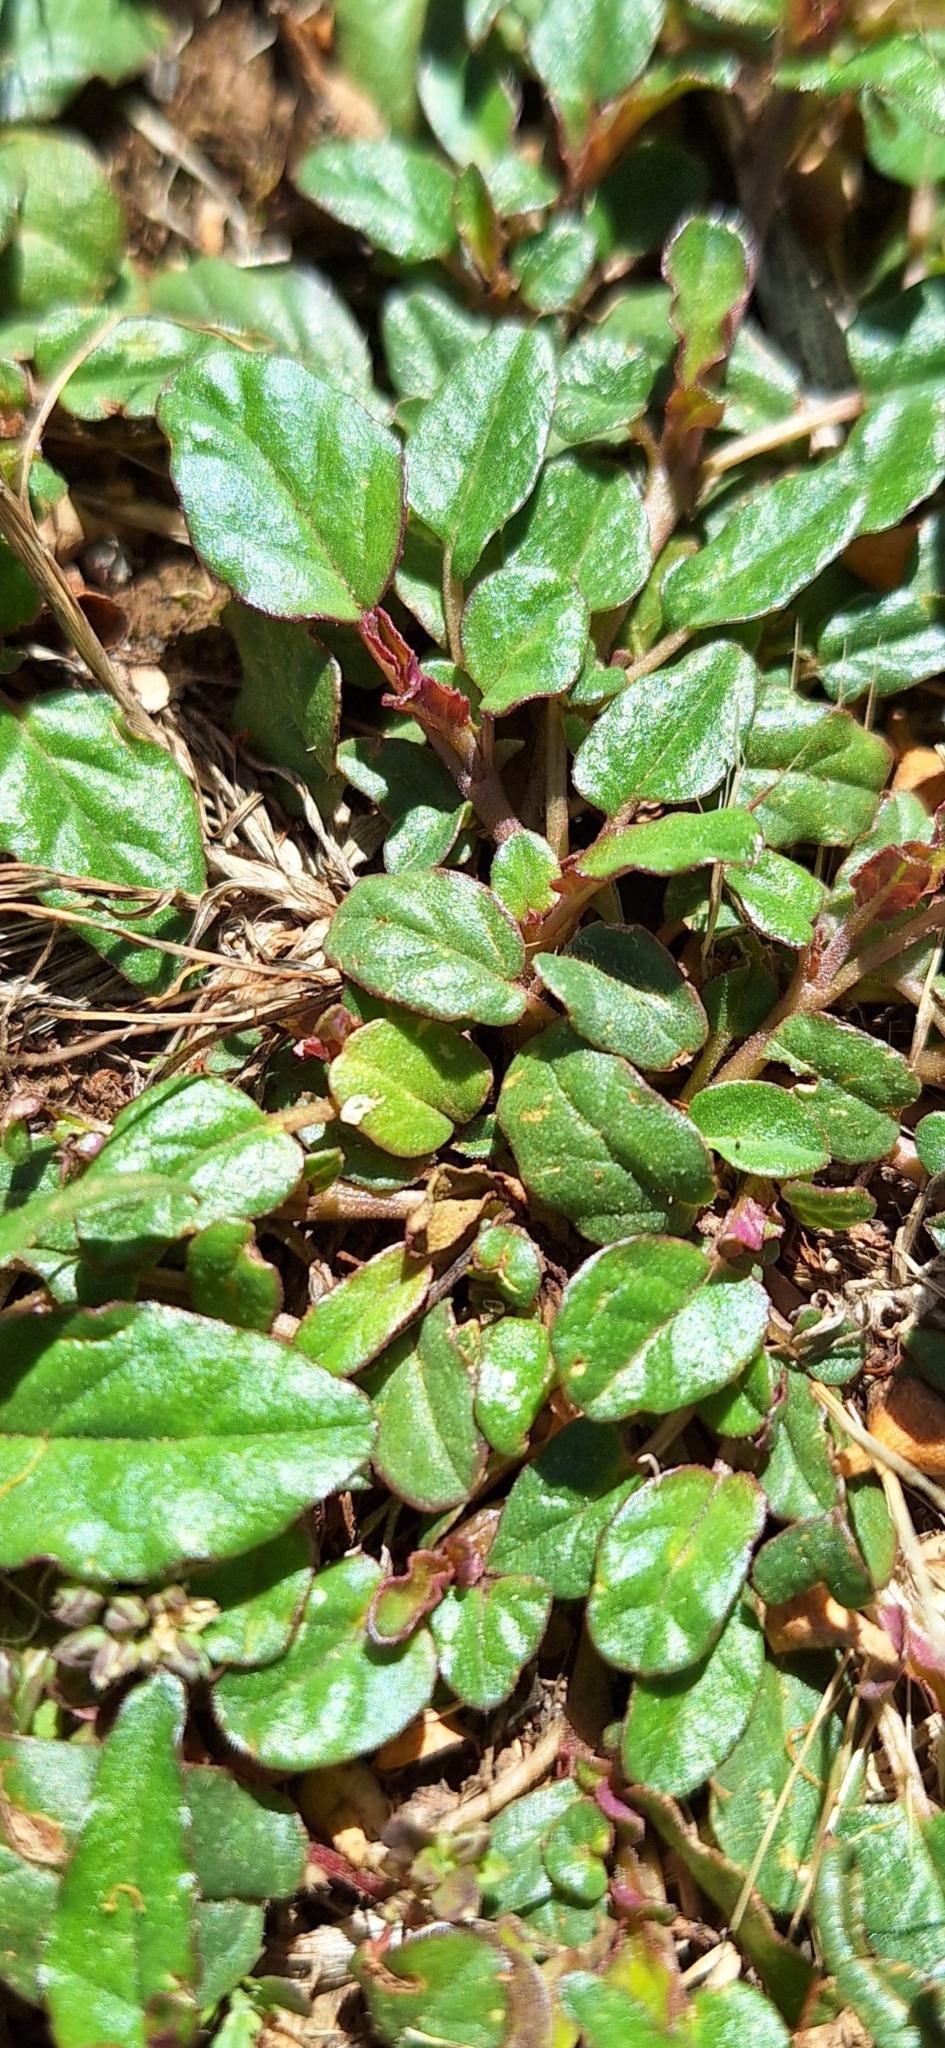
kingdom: Plantae
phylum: Tracheophyta
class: Magnoliopsida
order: Caryophyllales
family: Nyctaginaceae
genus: Boerhavia
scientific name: Boerhavia dominii
